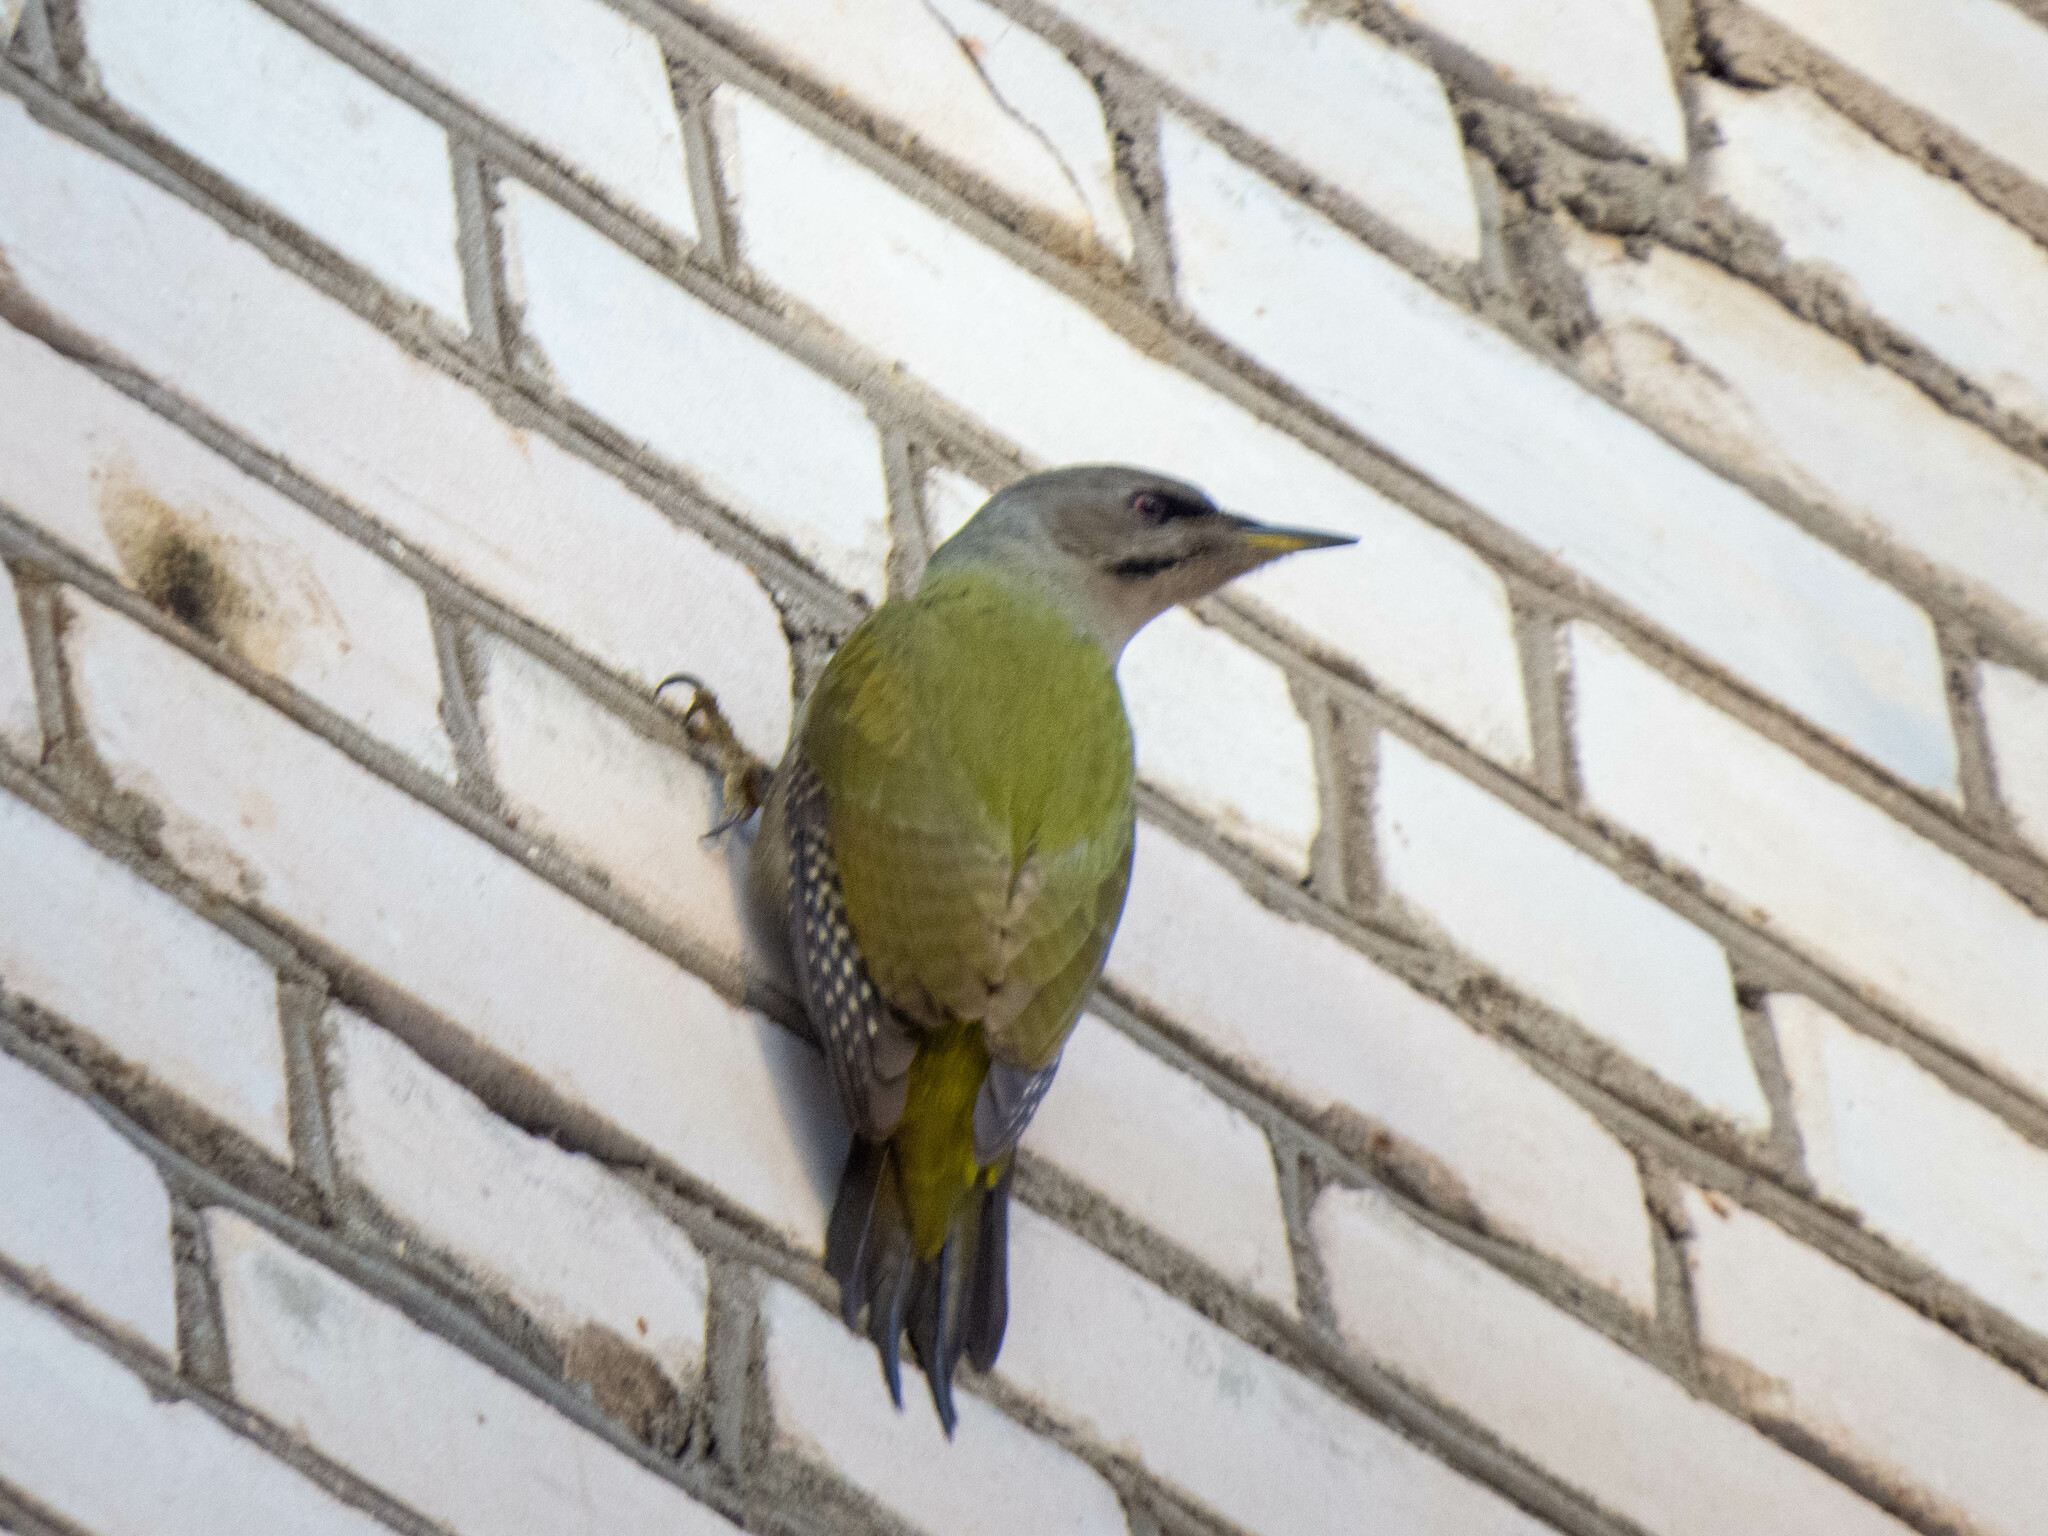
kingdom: Animalia
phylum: Chordata
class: Aves
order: Piciformes
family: Picidae
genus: Picus
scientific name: Picus canus
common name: Grey-headed woodpecker
